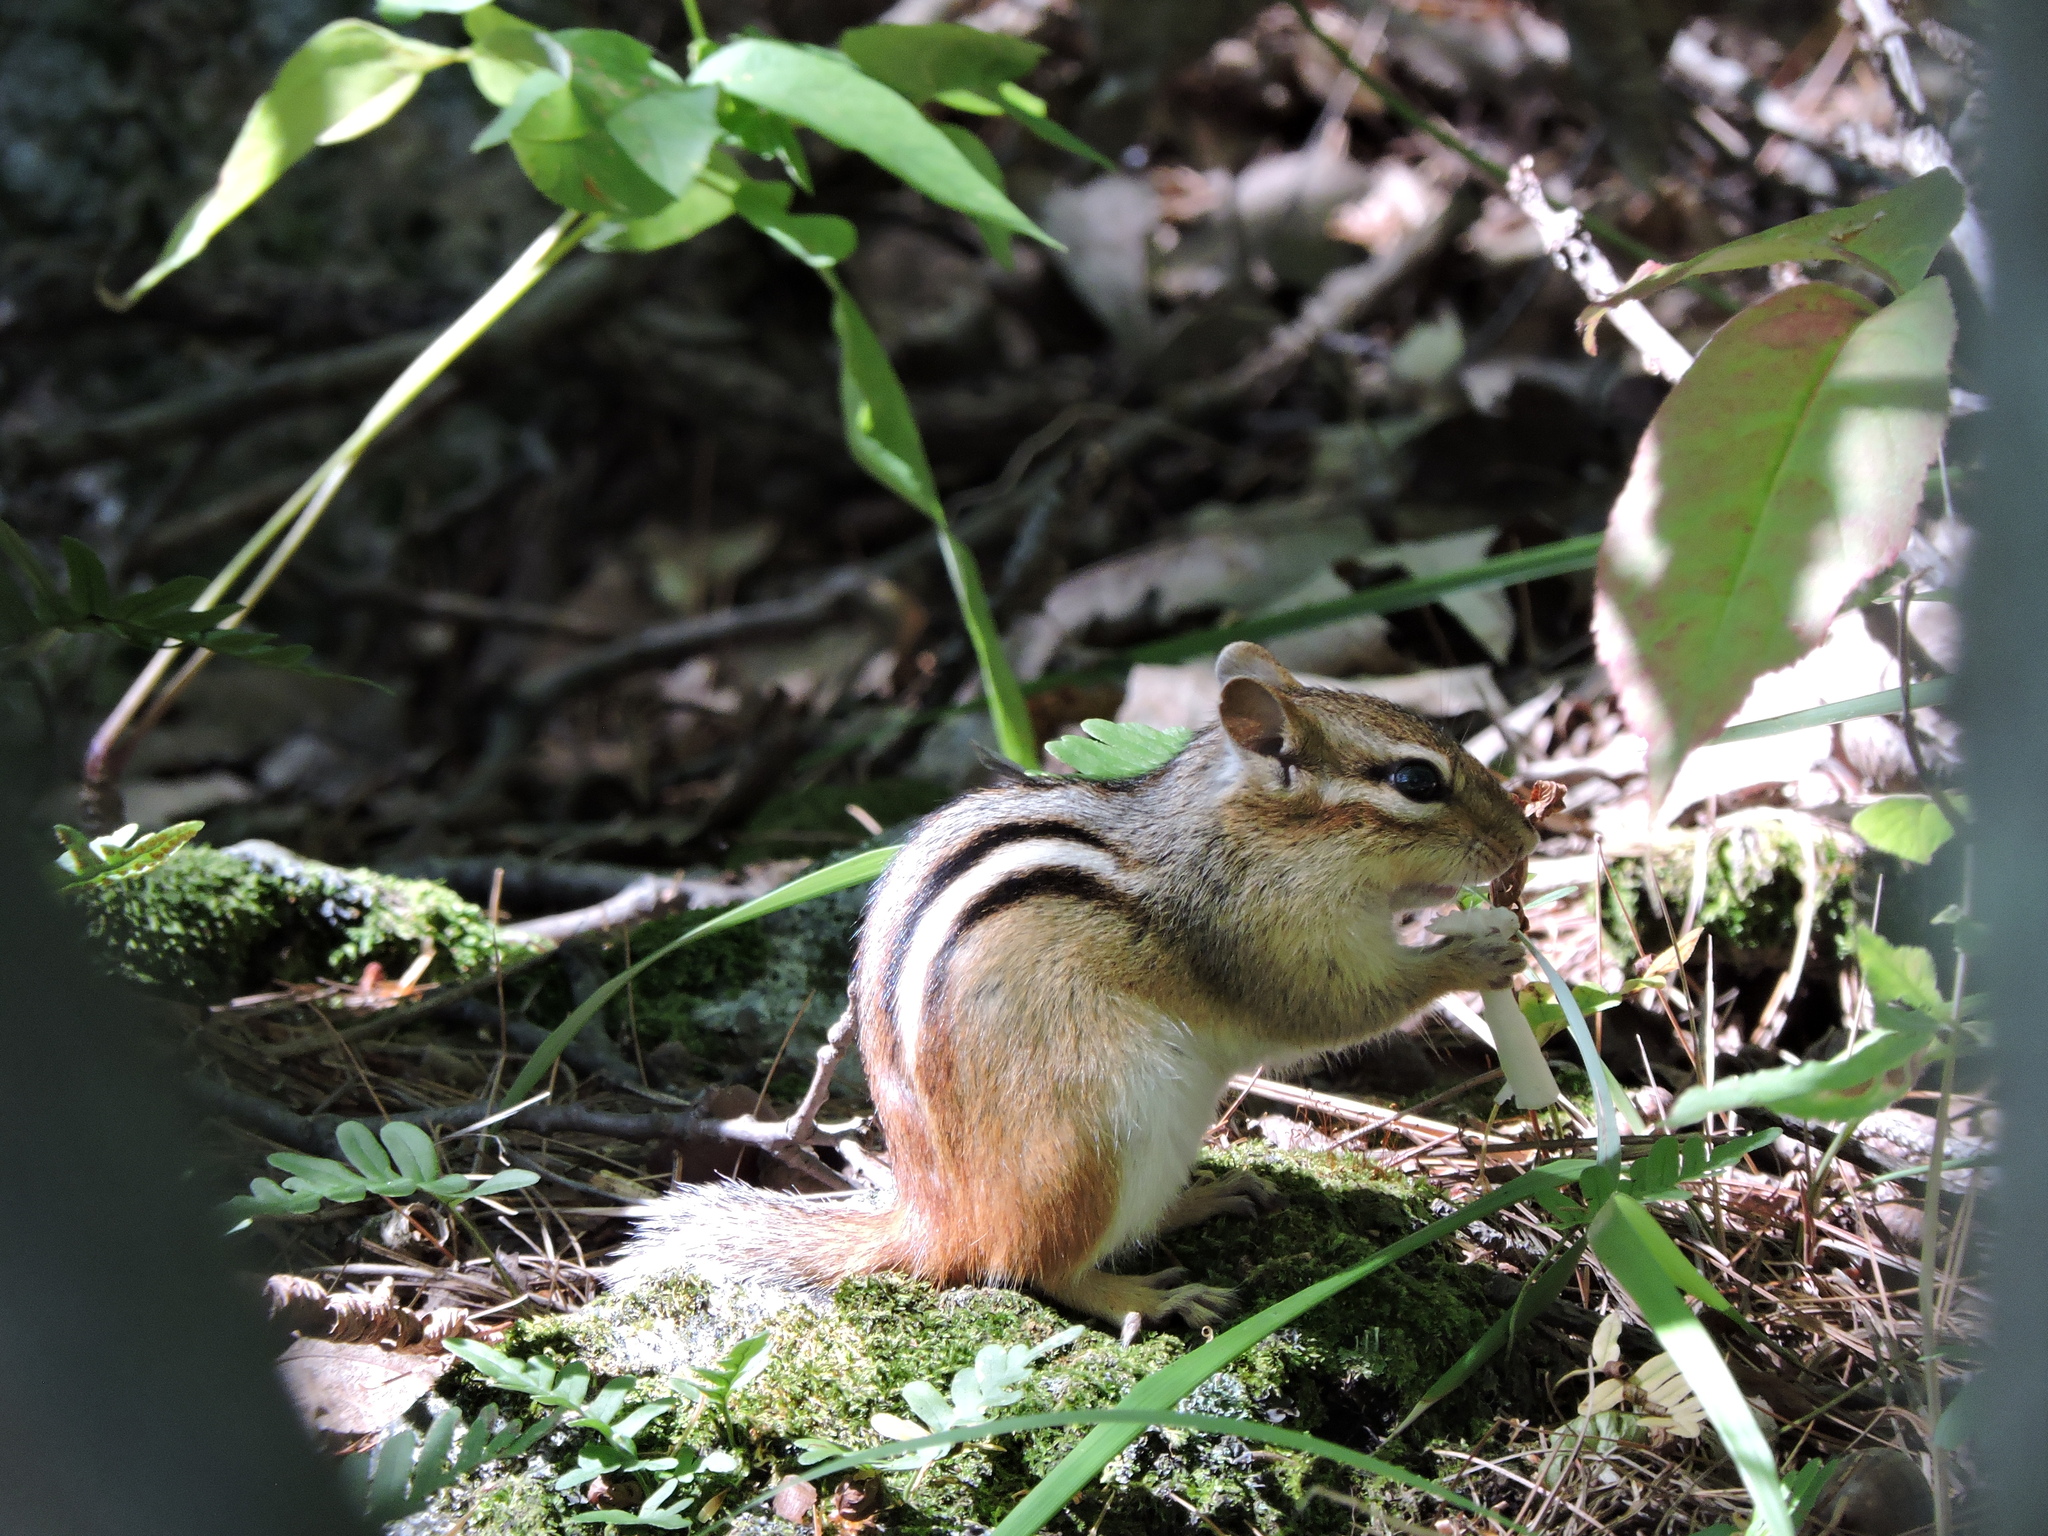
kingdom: Animalia
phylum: Chordata
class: Mammalia
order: Rodentia
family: Sciuridae
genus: Tamias
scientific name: Tamias striatus
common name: Eastern chipmunk
